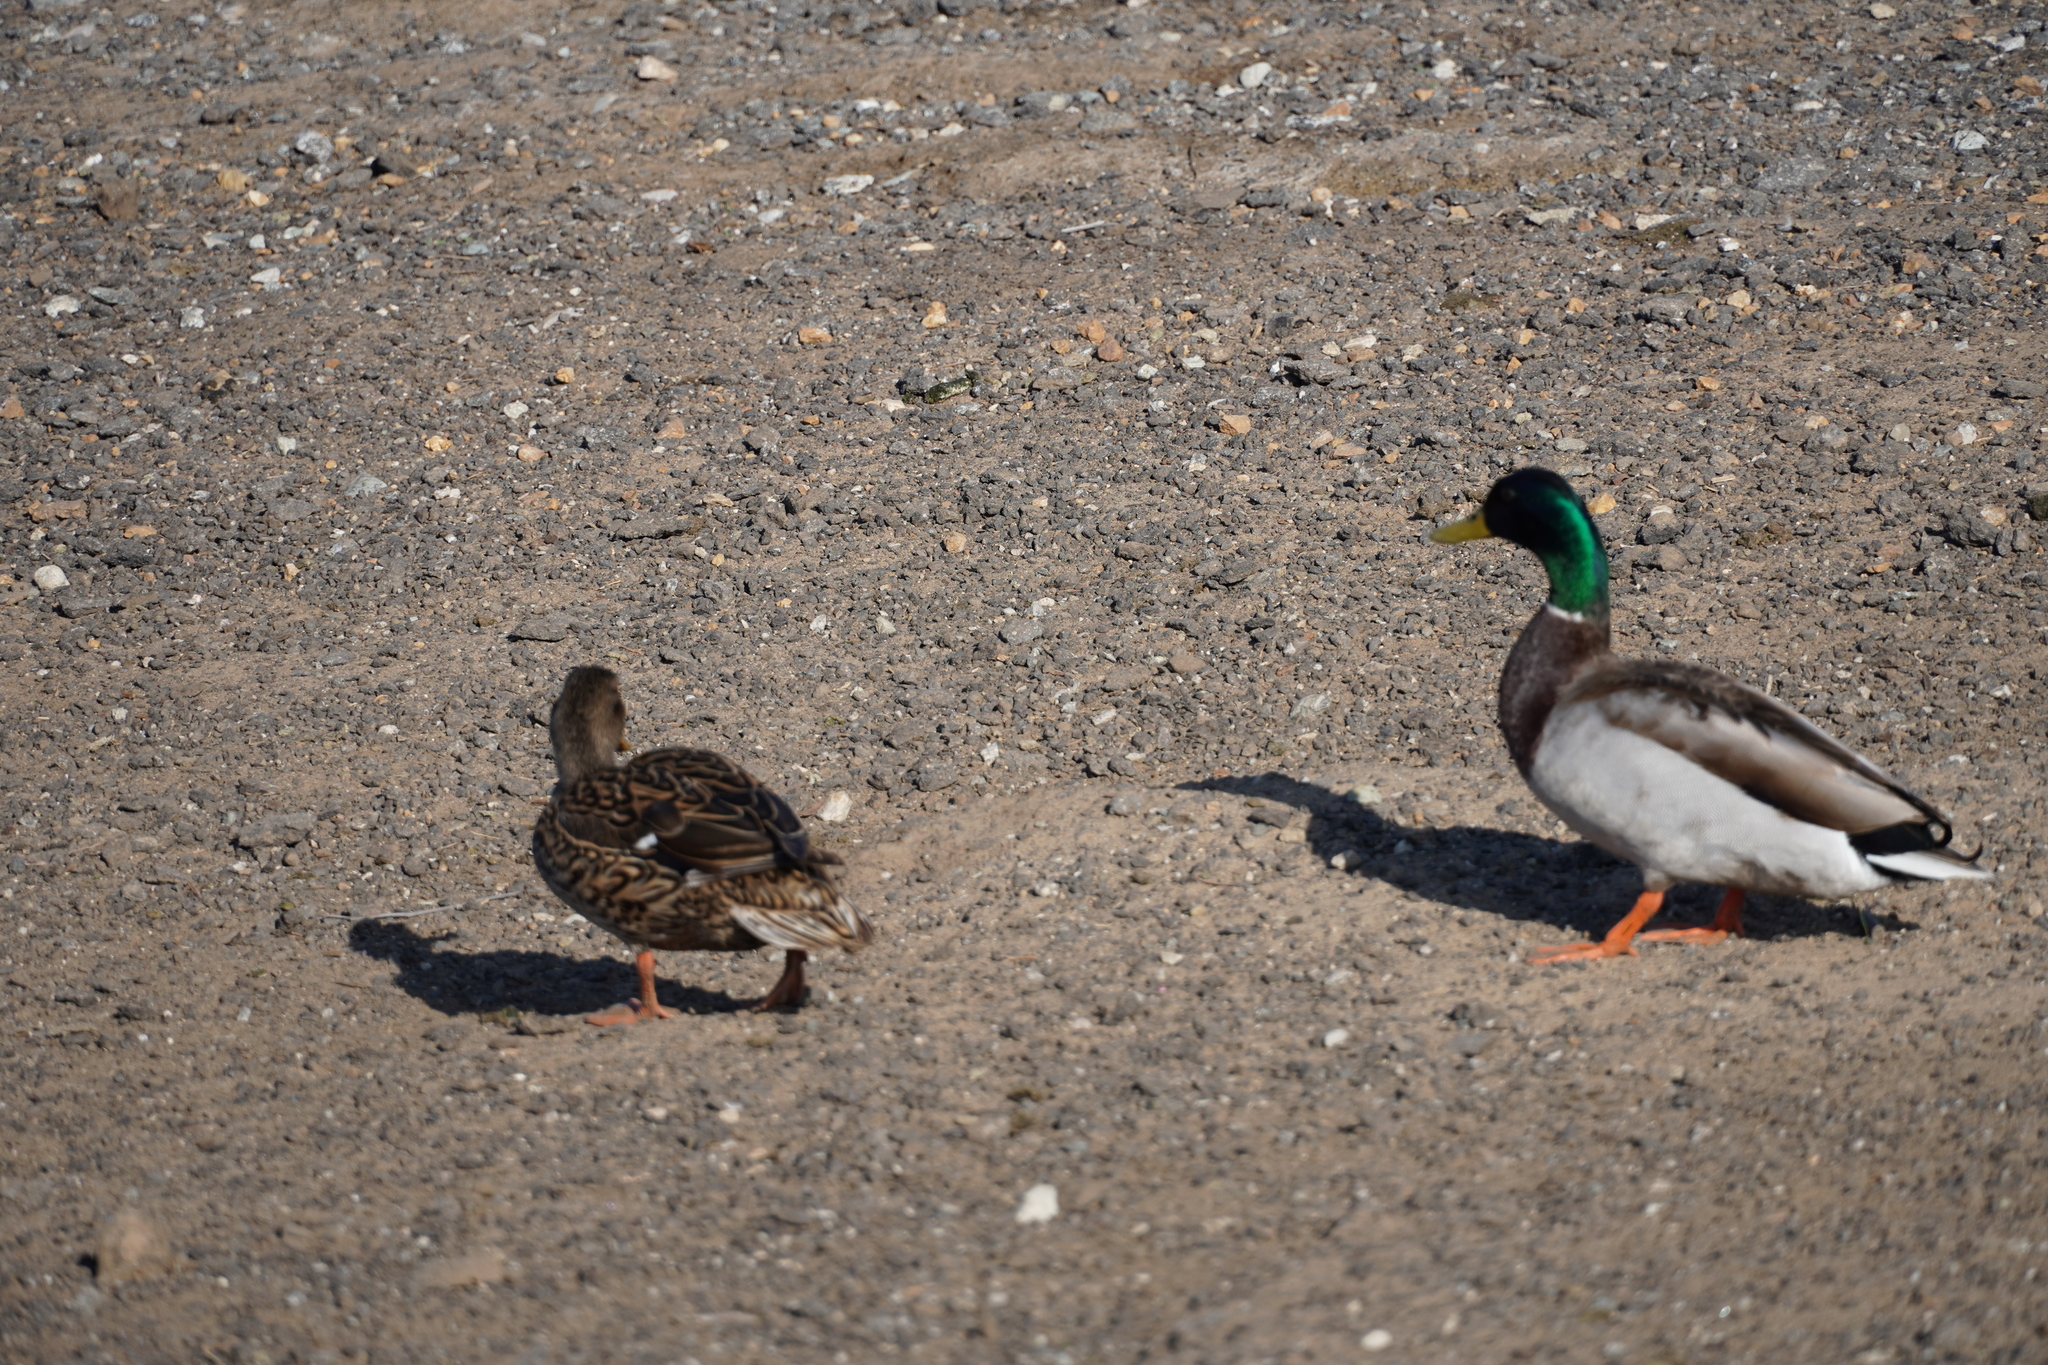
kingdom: Animalia
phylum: Chordata
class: Aves
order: Anseriformes
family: Anatidae
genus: Anas
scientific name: Anas platyrhynchos
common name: Mallard
